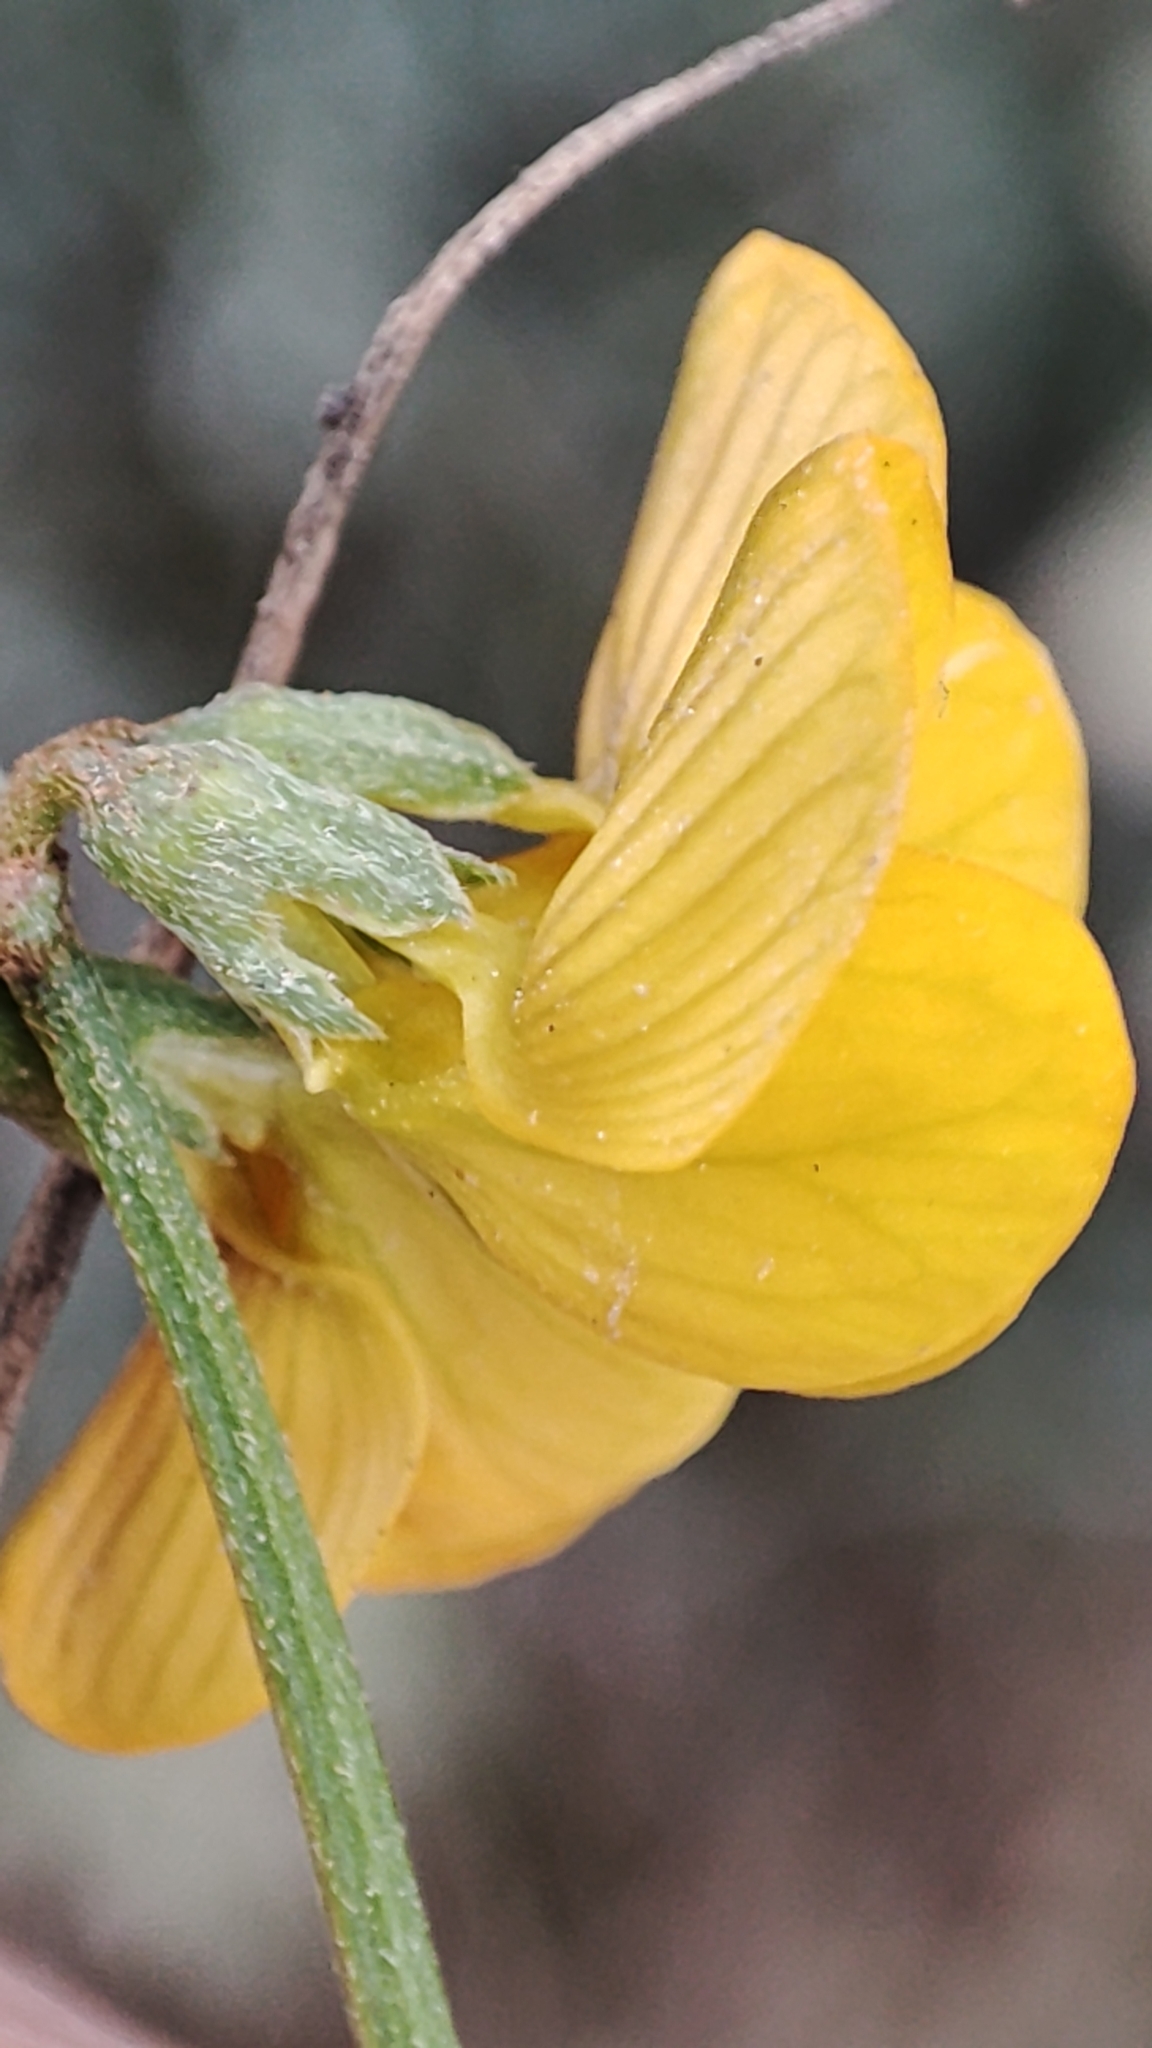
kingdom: Plantae
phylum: Tracheophyta
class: Magnoliopsida
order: Fabales
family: Fabaceae
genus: Hippocrepis
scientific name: Hippocrepis comosa
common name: Horseshoe vetch
